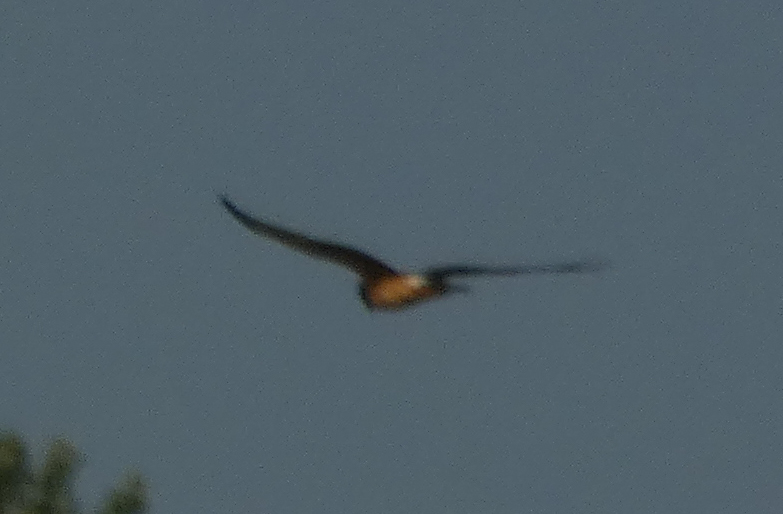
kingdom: Animalia
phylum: Chordata
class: Aves
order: Accipitriformes
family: Accipitridae
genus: Circus
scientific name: Circus cyaneus
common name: Hen harrier
